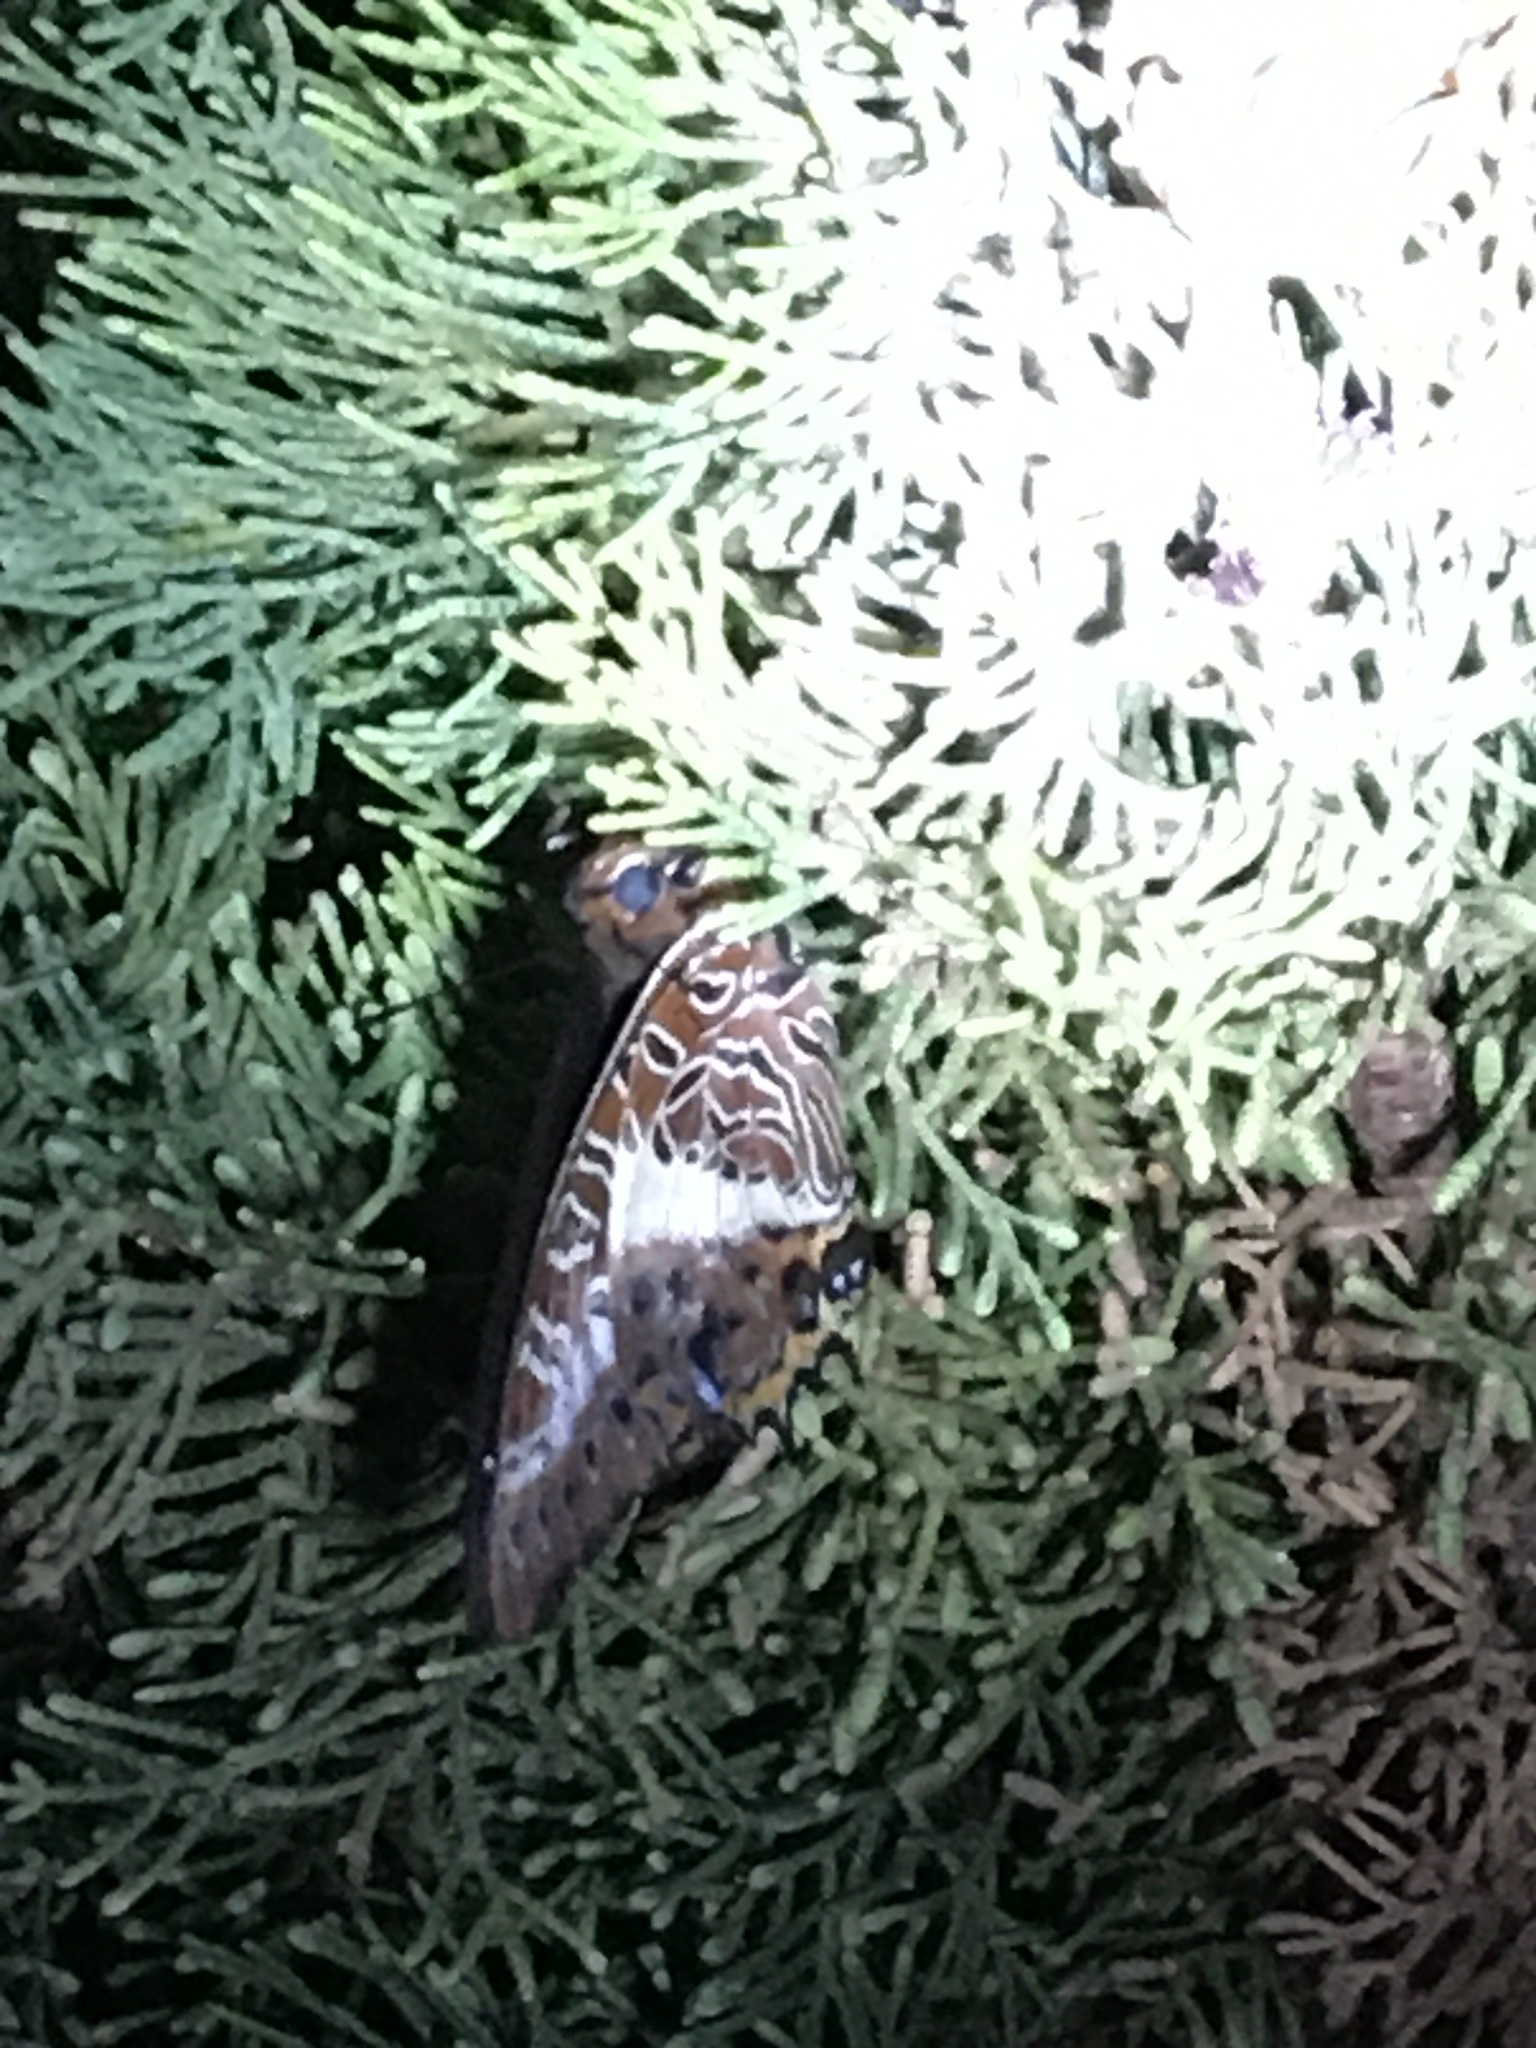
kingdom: Animalia
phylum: Arthropoda
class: Insecta
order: Lepidoptera
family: Nymphalidae
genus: Charaxes
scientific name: Charaxes brutus
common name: White-barred charaxes
